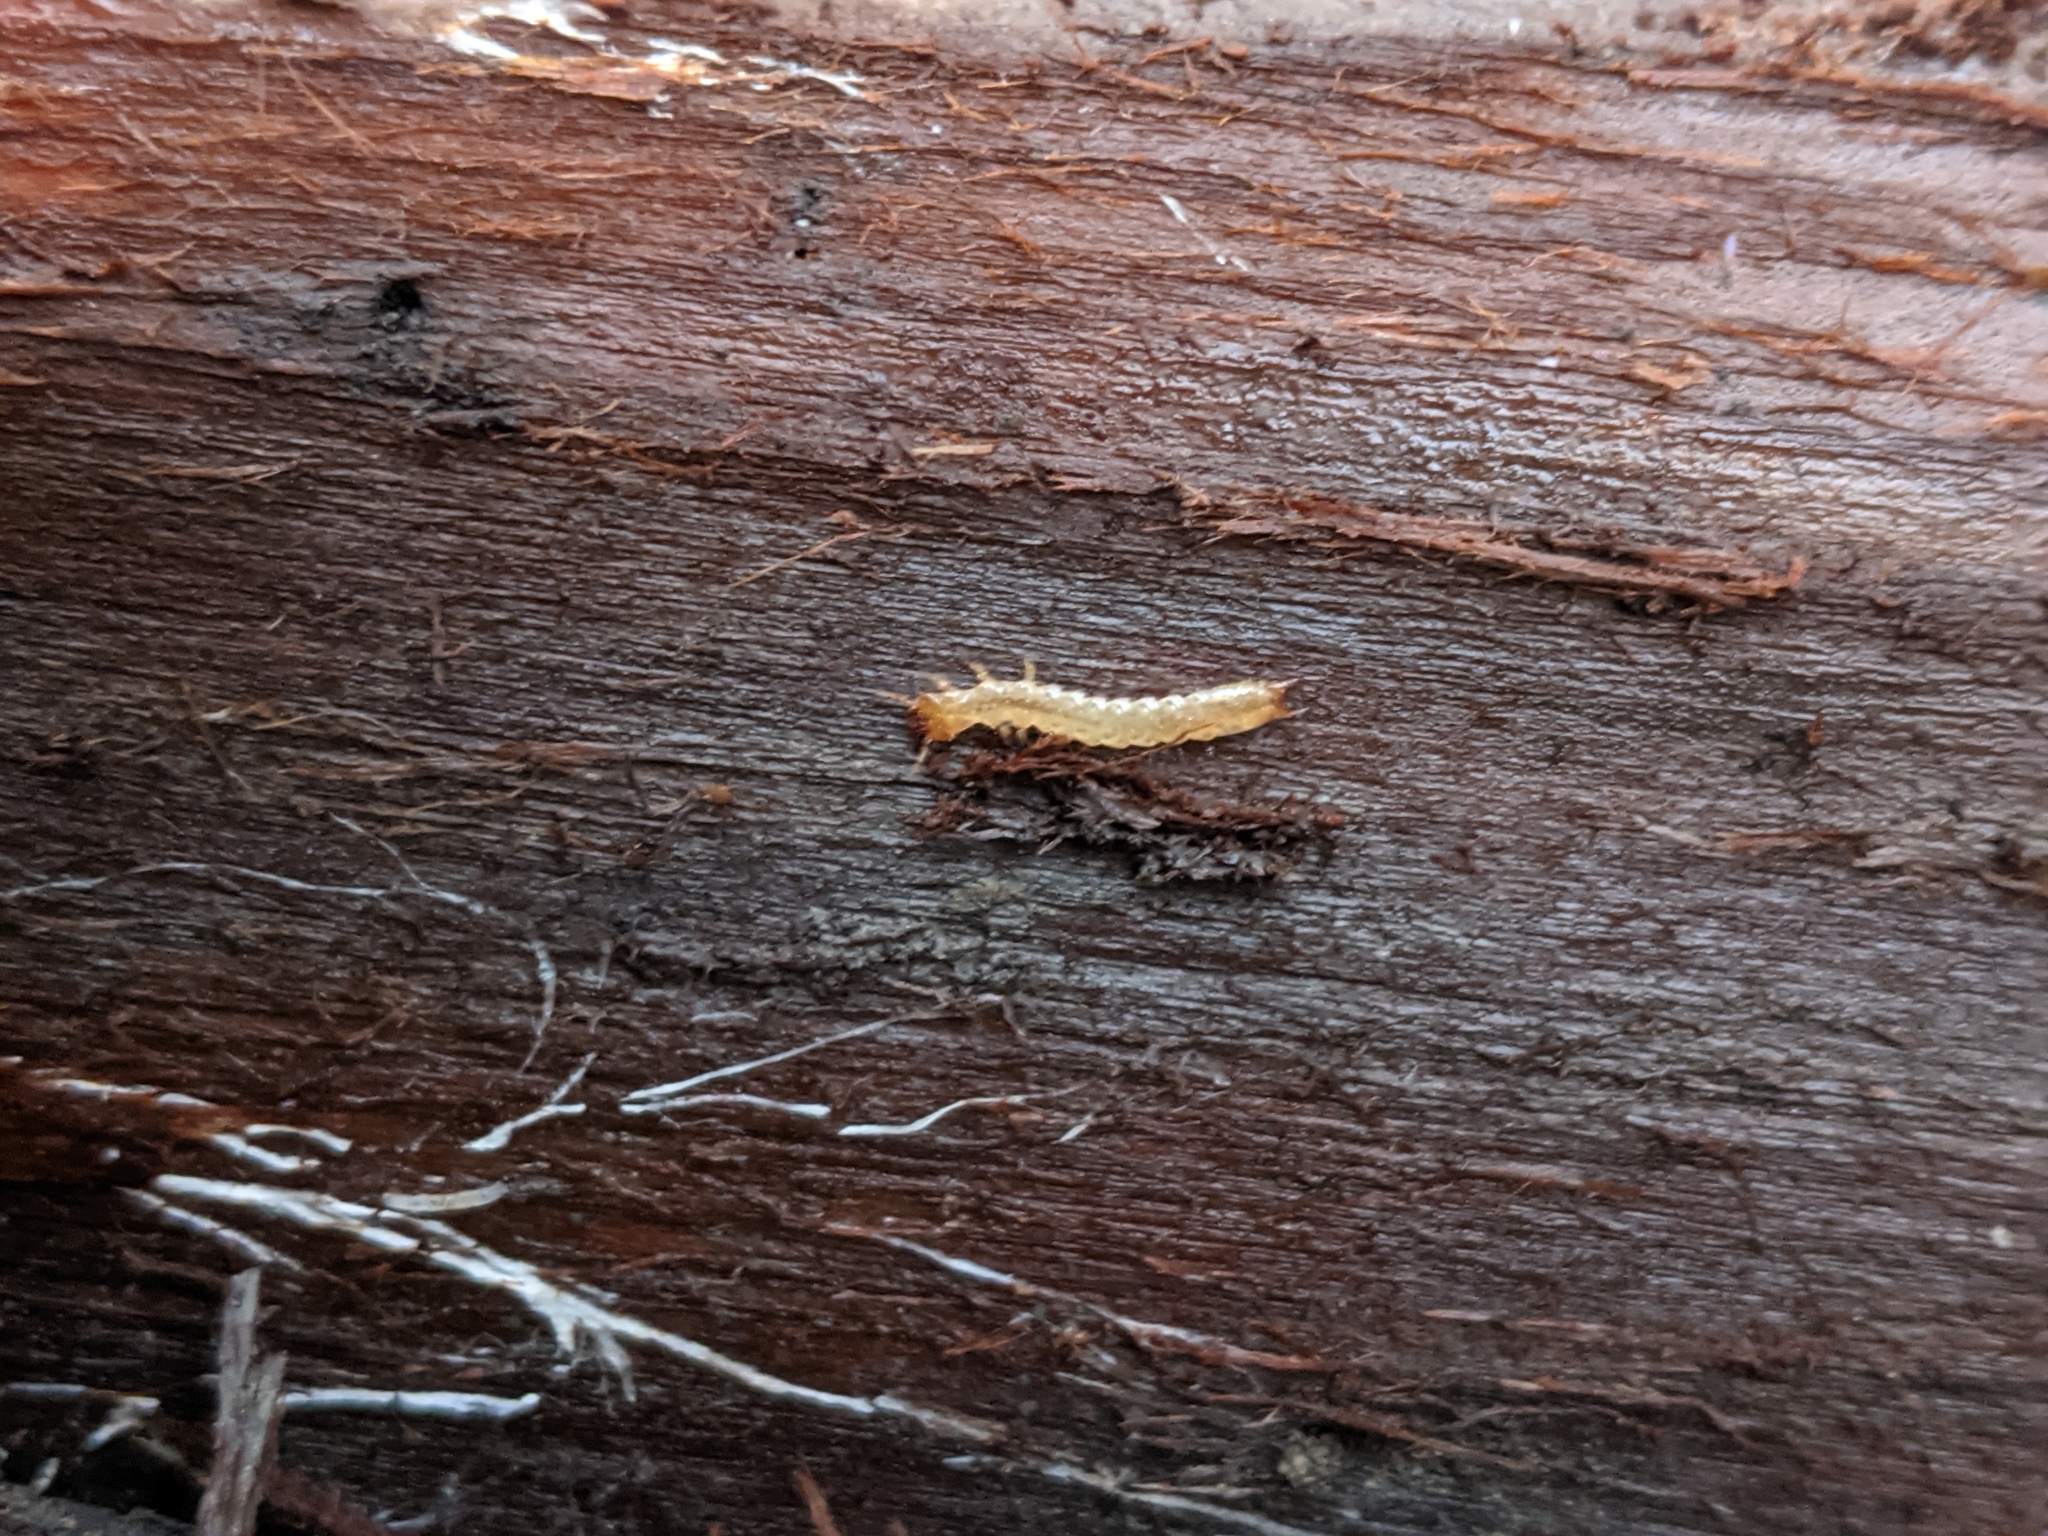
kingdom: Animalia
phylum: Arthropoda
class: Insecta
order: Coleoptera
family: Pyrochroidae
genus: Dendroides
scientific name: Dendroides canadensis
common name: Canada fire-colored beetle
